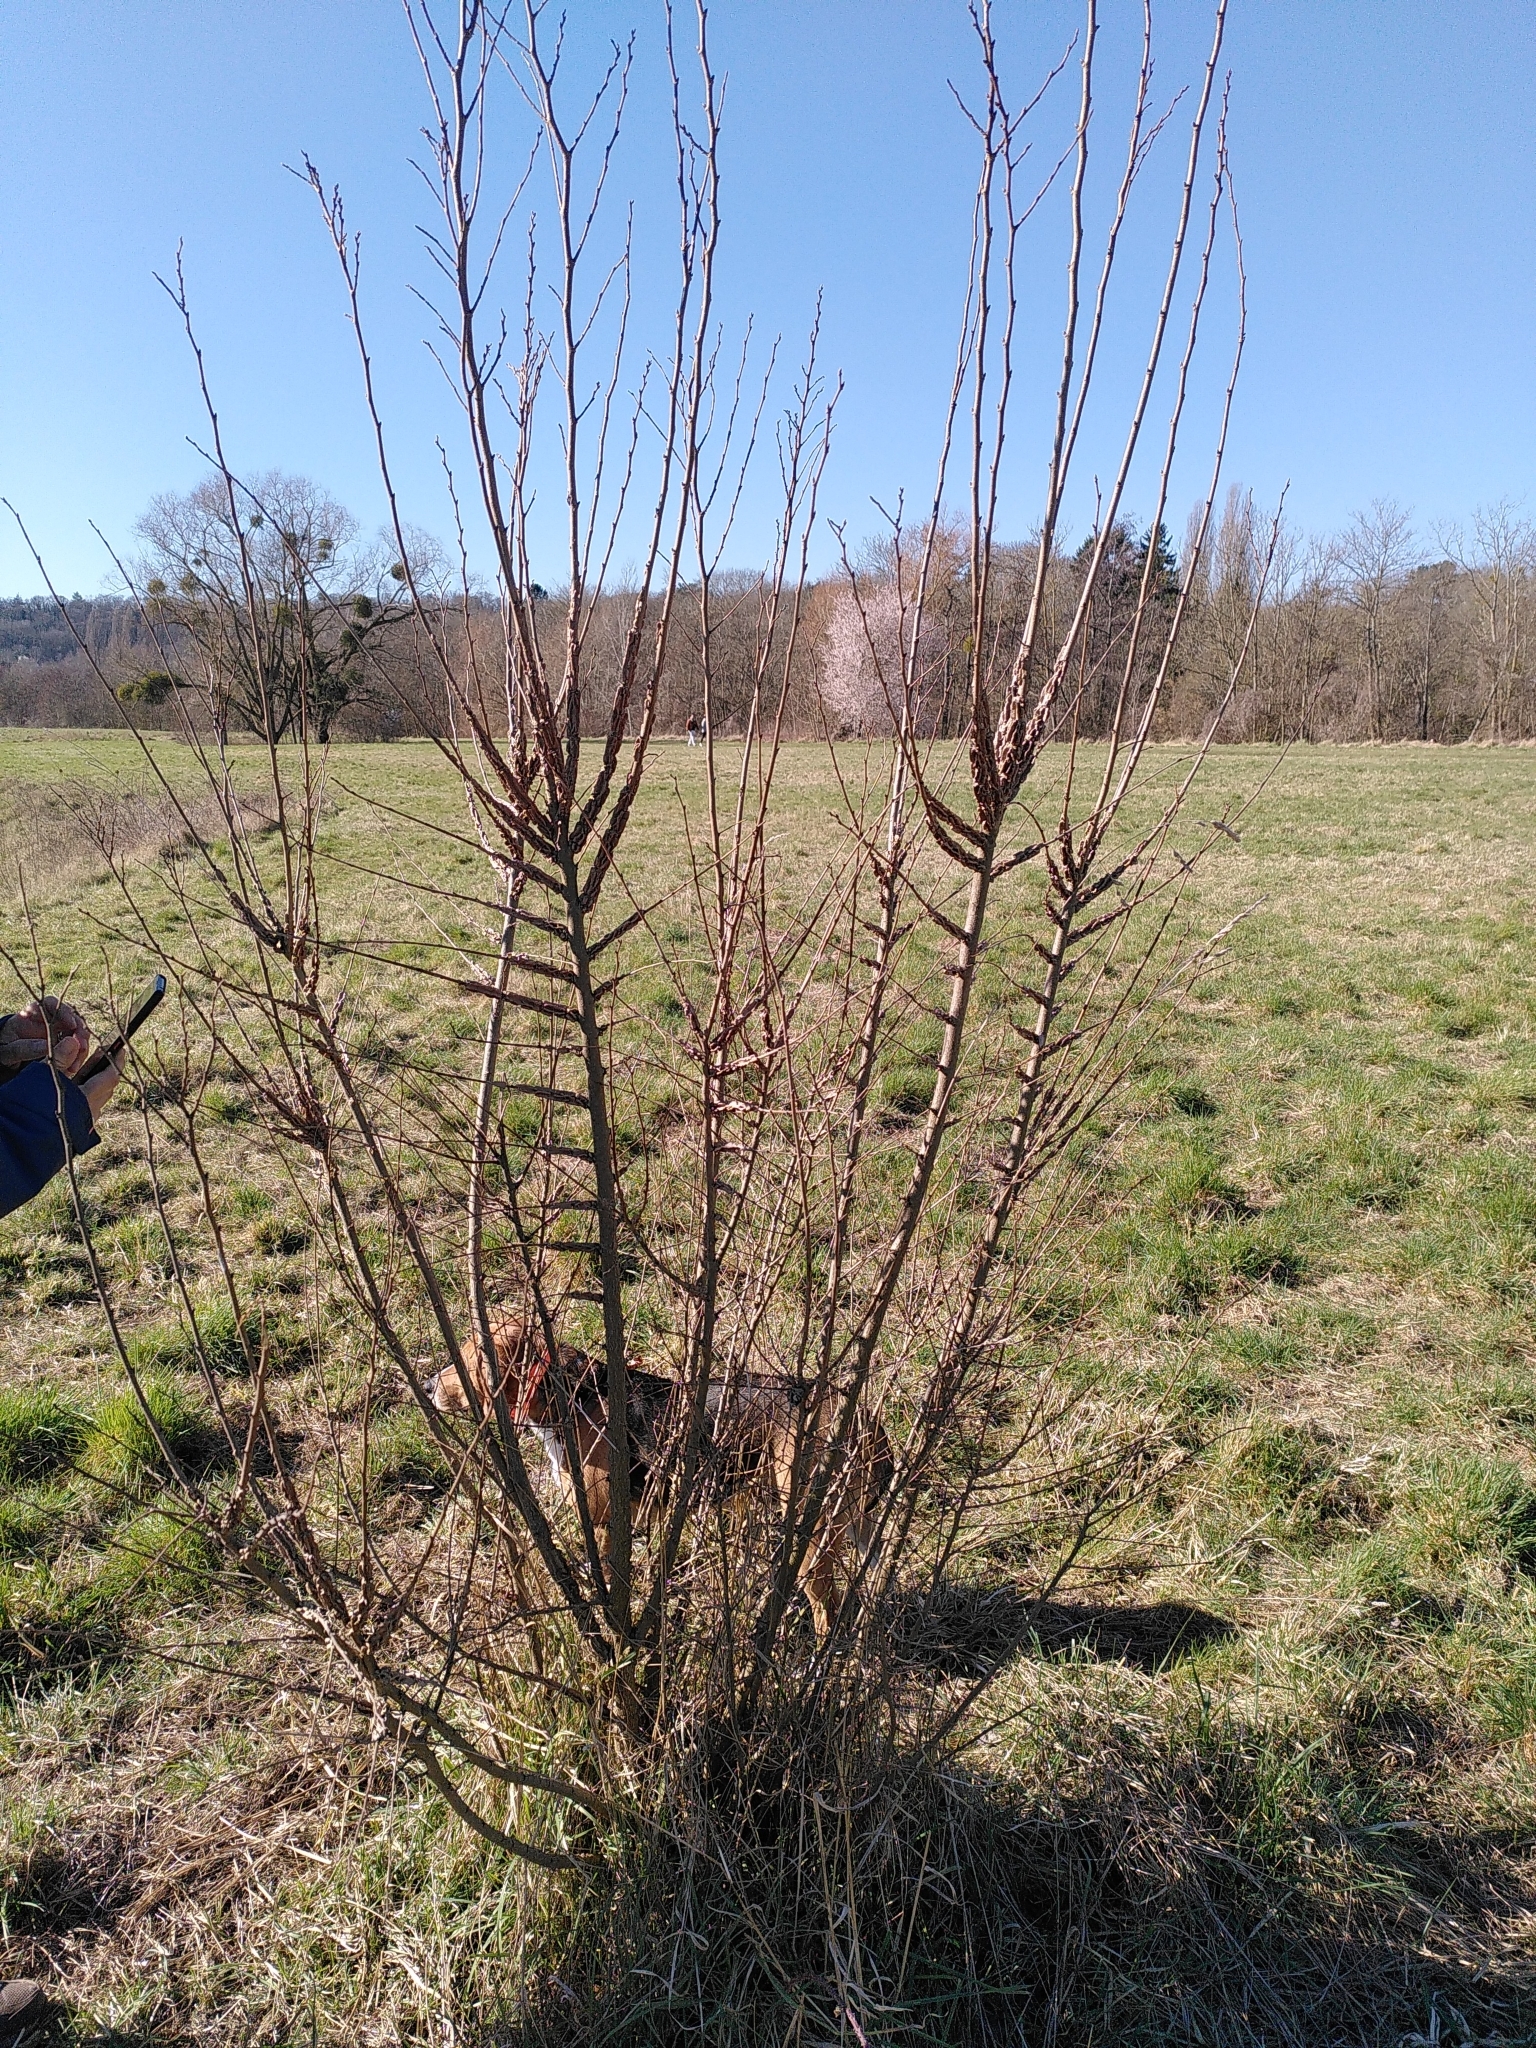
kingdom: Plantae
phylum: Tracheophyta
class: Magnoliopsida
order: Rosales
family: Ulmaceae
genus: Ulmus
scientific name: Ulmus minor
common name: Small-leaved elm
